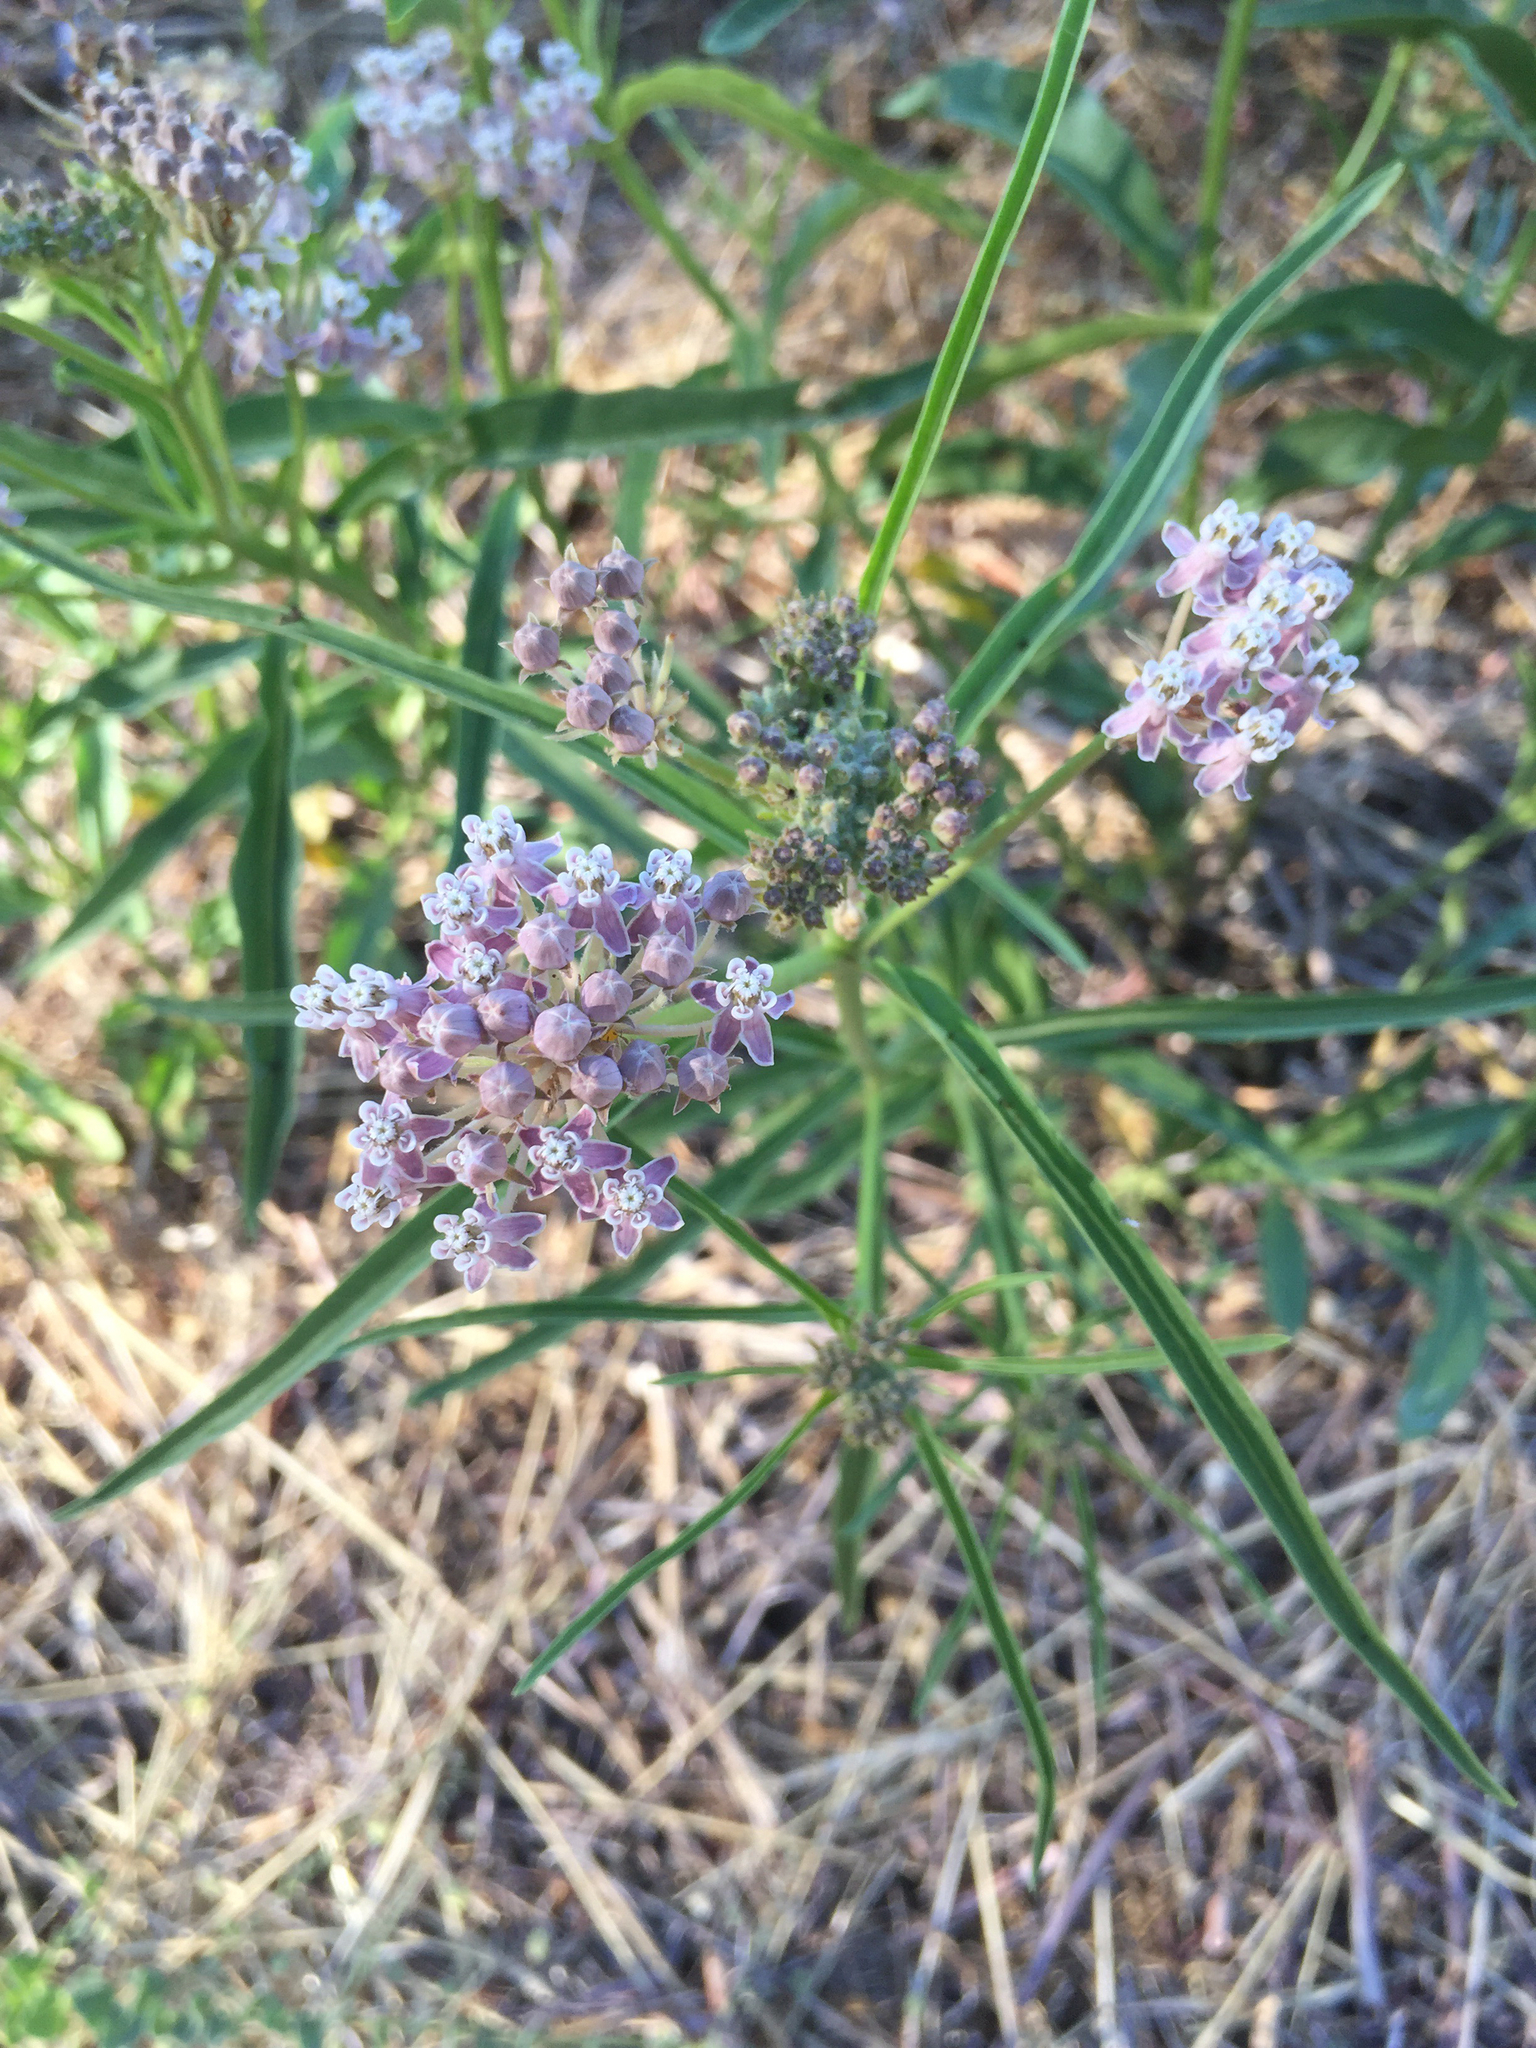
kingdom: Plantae
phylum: Tracheophyta
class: Magnoliopsida
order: Gentianales
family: Apocynaceae
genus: Asclepias
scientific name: Asclepias fascicularis
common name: Mexican milkweed
